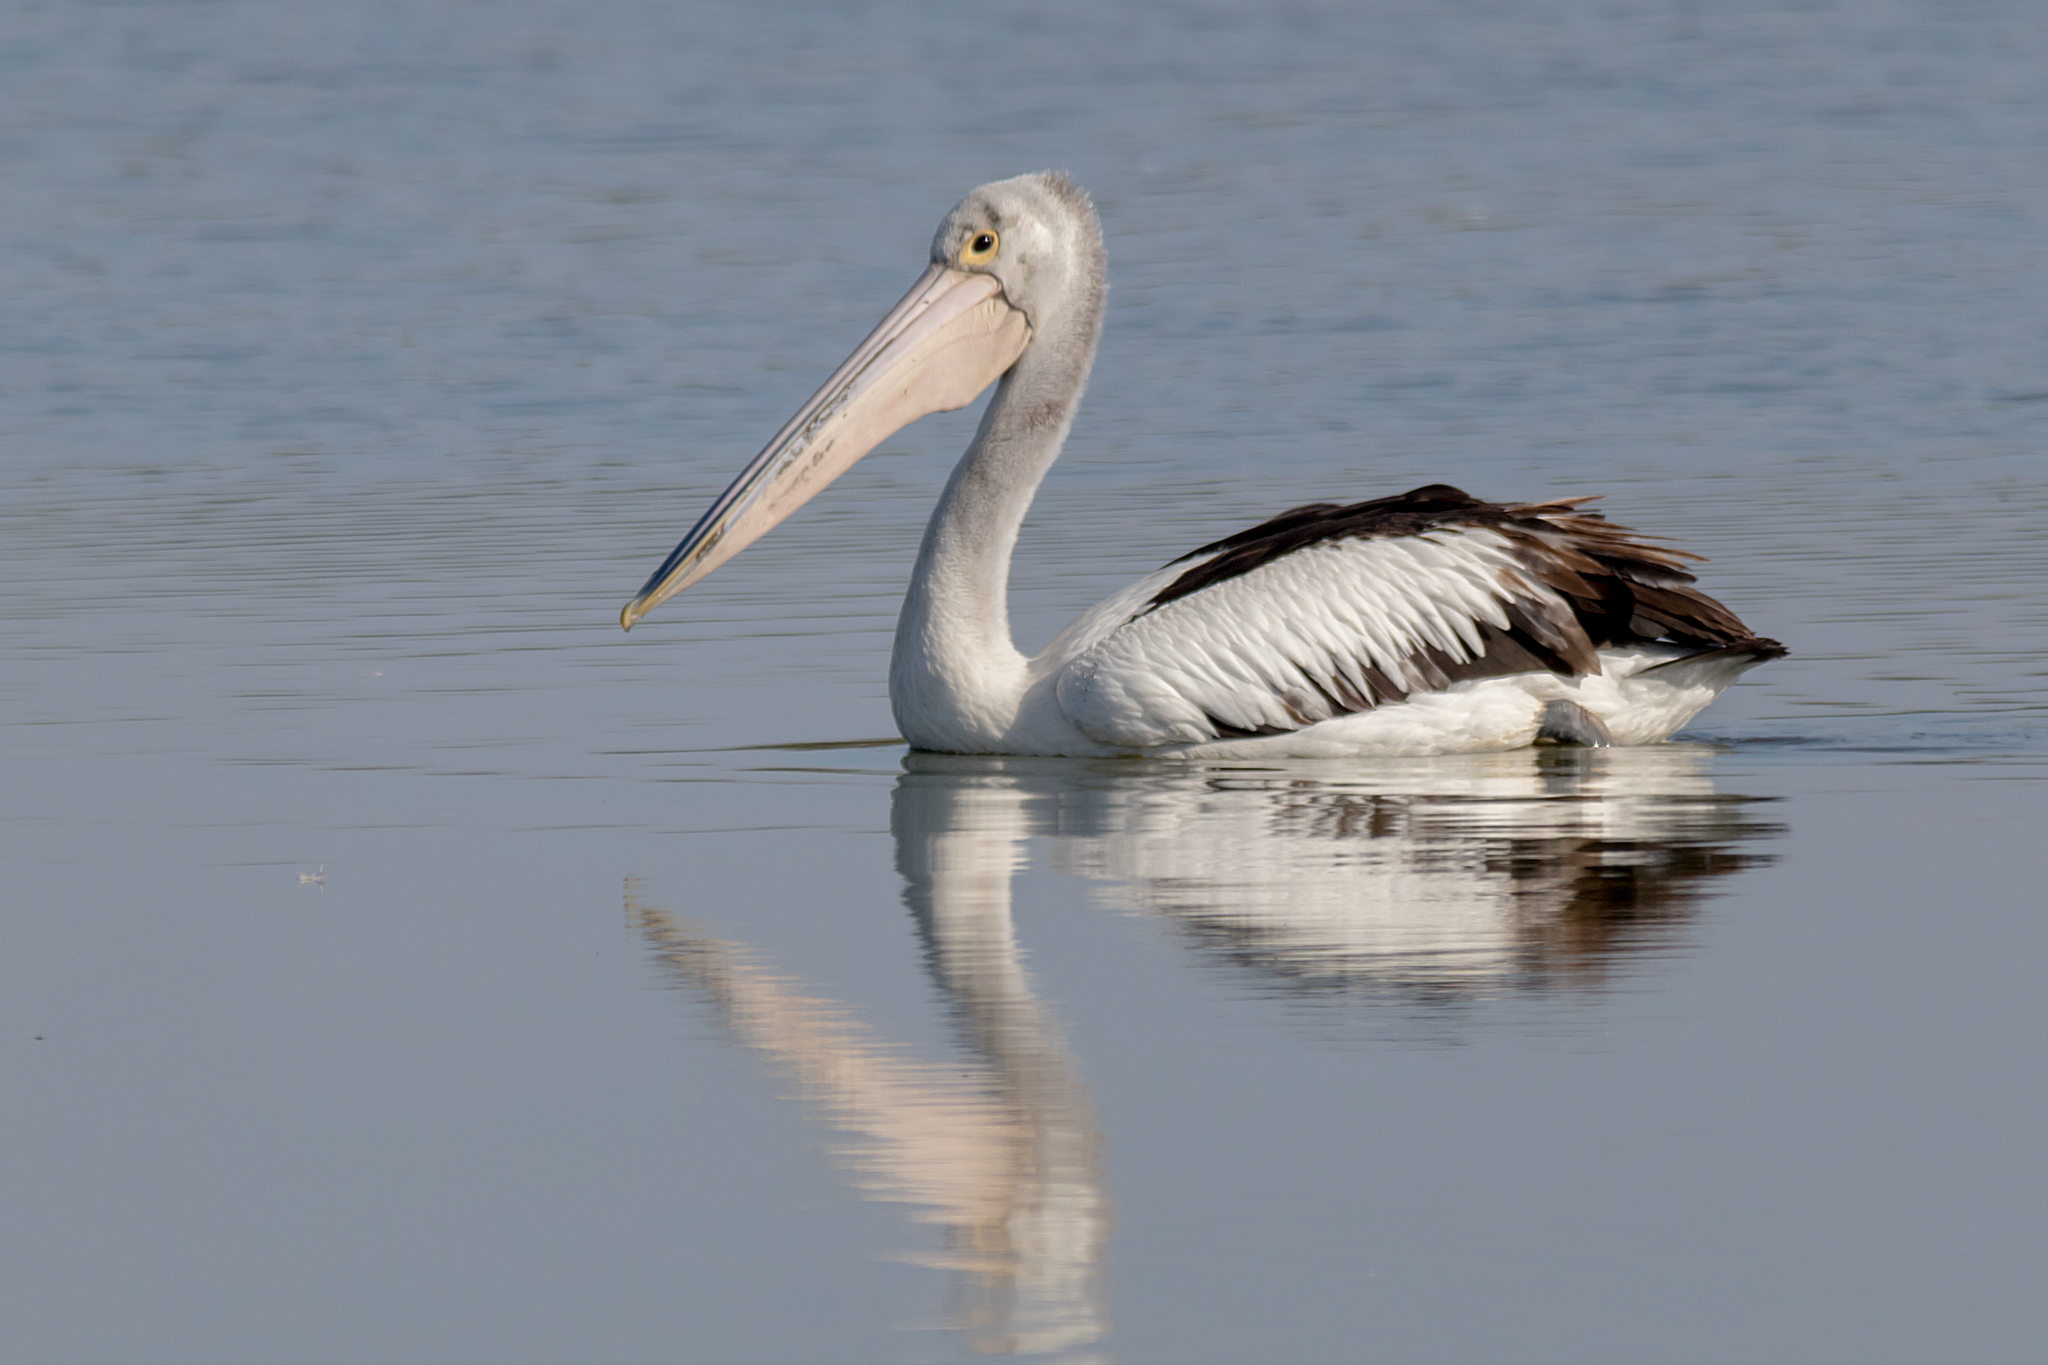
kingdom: Animalia
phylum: Chordata
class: Aves
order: Pelecaniformes
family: Pelecanidae
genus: Pelecanus
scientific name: Pelecanus conspicillatus
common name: Australian pelican
